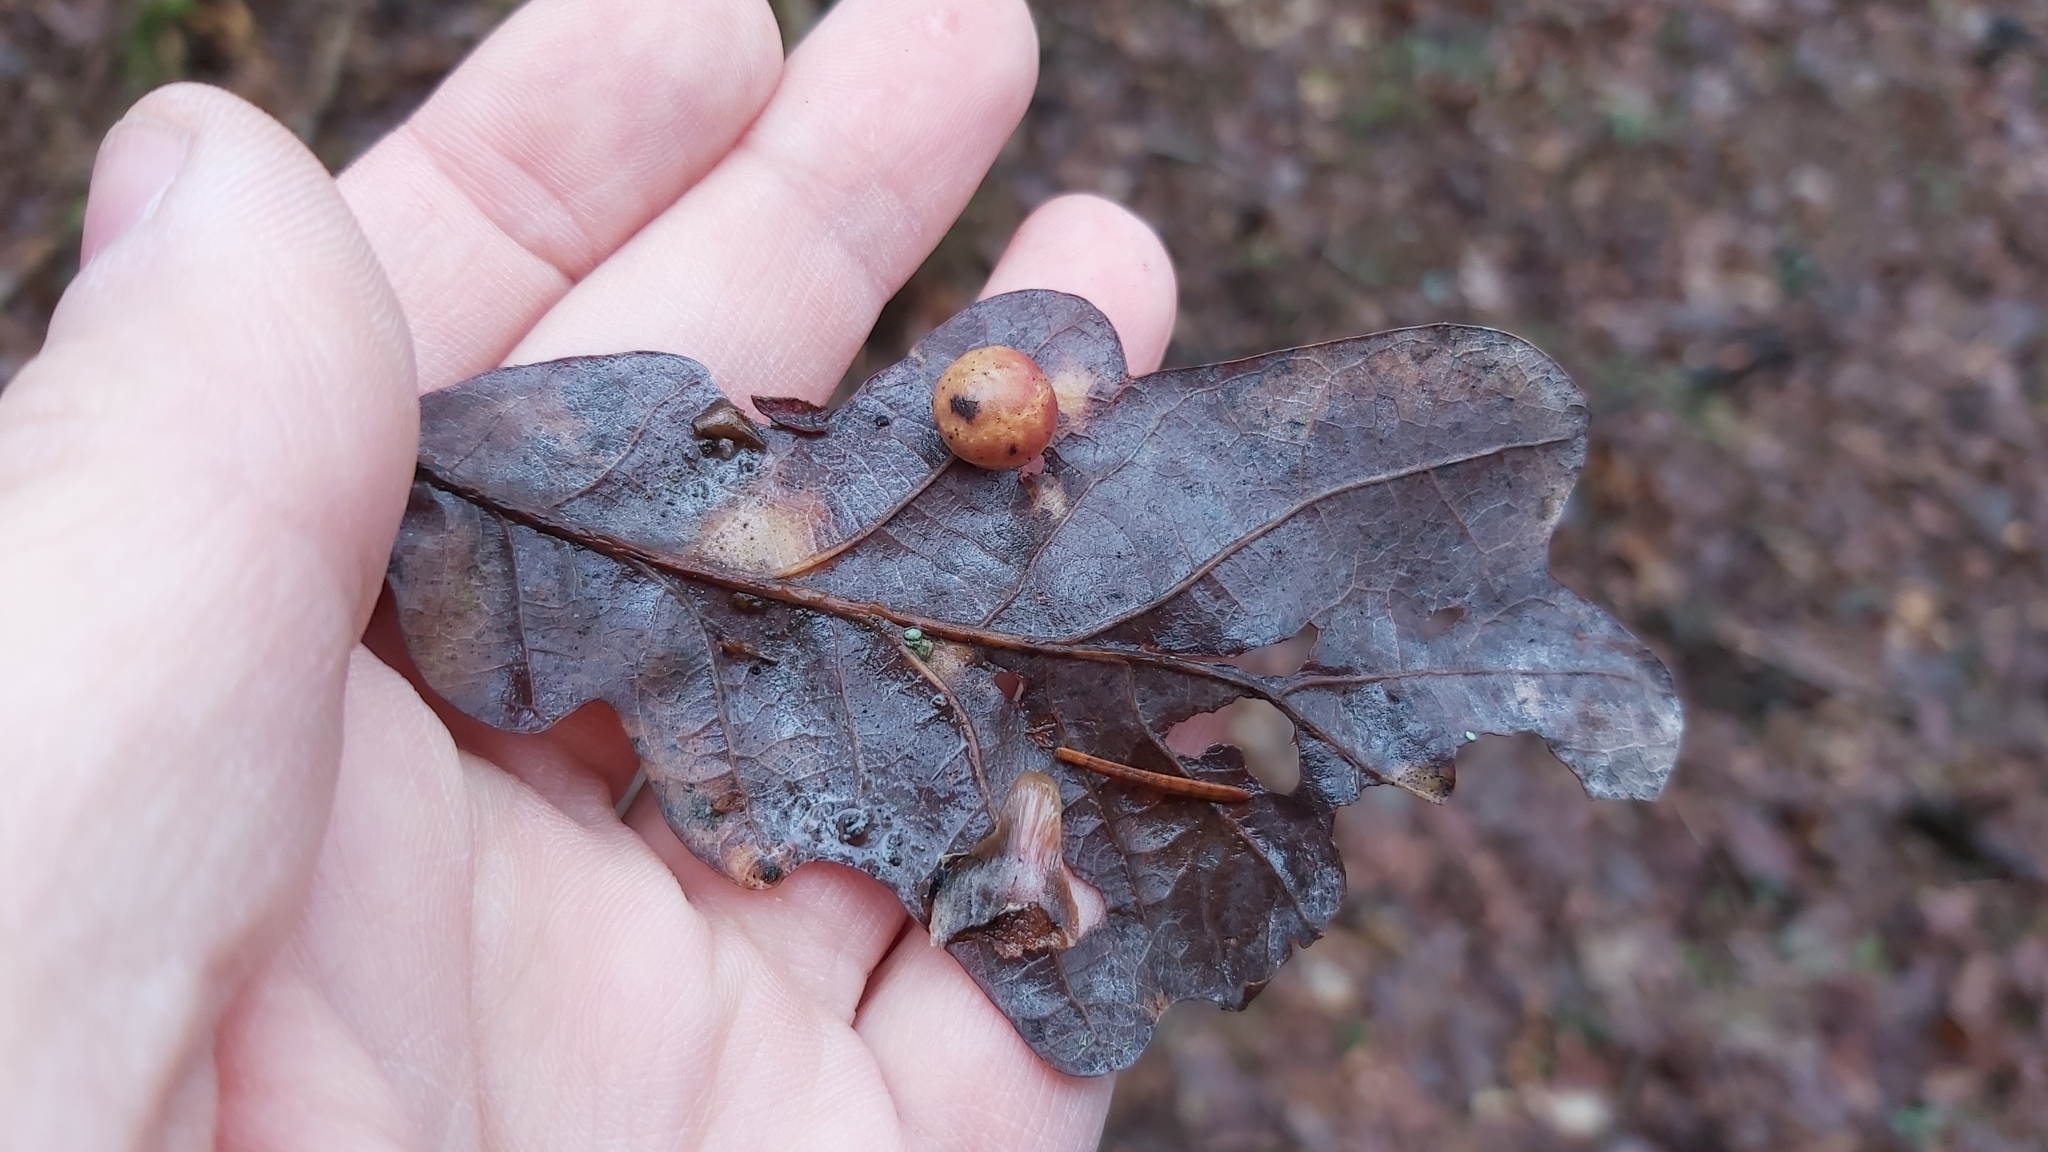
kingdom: Animalia
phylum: Arthropoda
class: Insecta
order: Hymenoptera
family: Cynipidae
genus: Cynips
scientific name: Cynips quercusfolii
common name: Cherry gall
